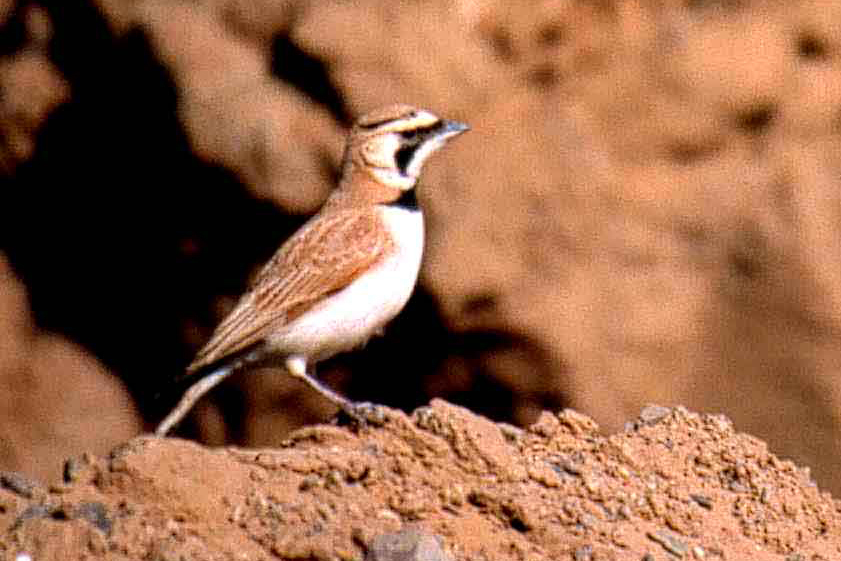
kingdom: Animalia
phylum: Chordata
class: Aves
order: Passeriformes
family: Alaudidae
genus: Eremophila
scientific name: Eremophila bilopha
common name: Temminck's lark
